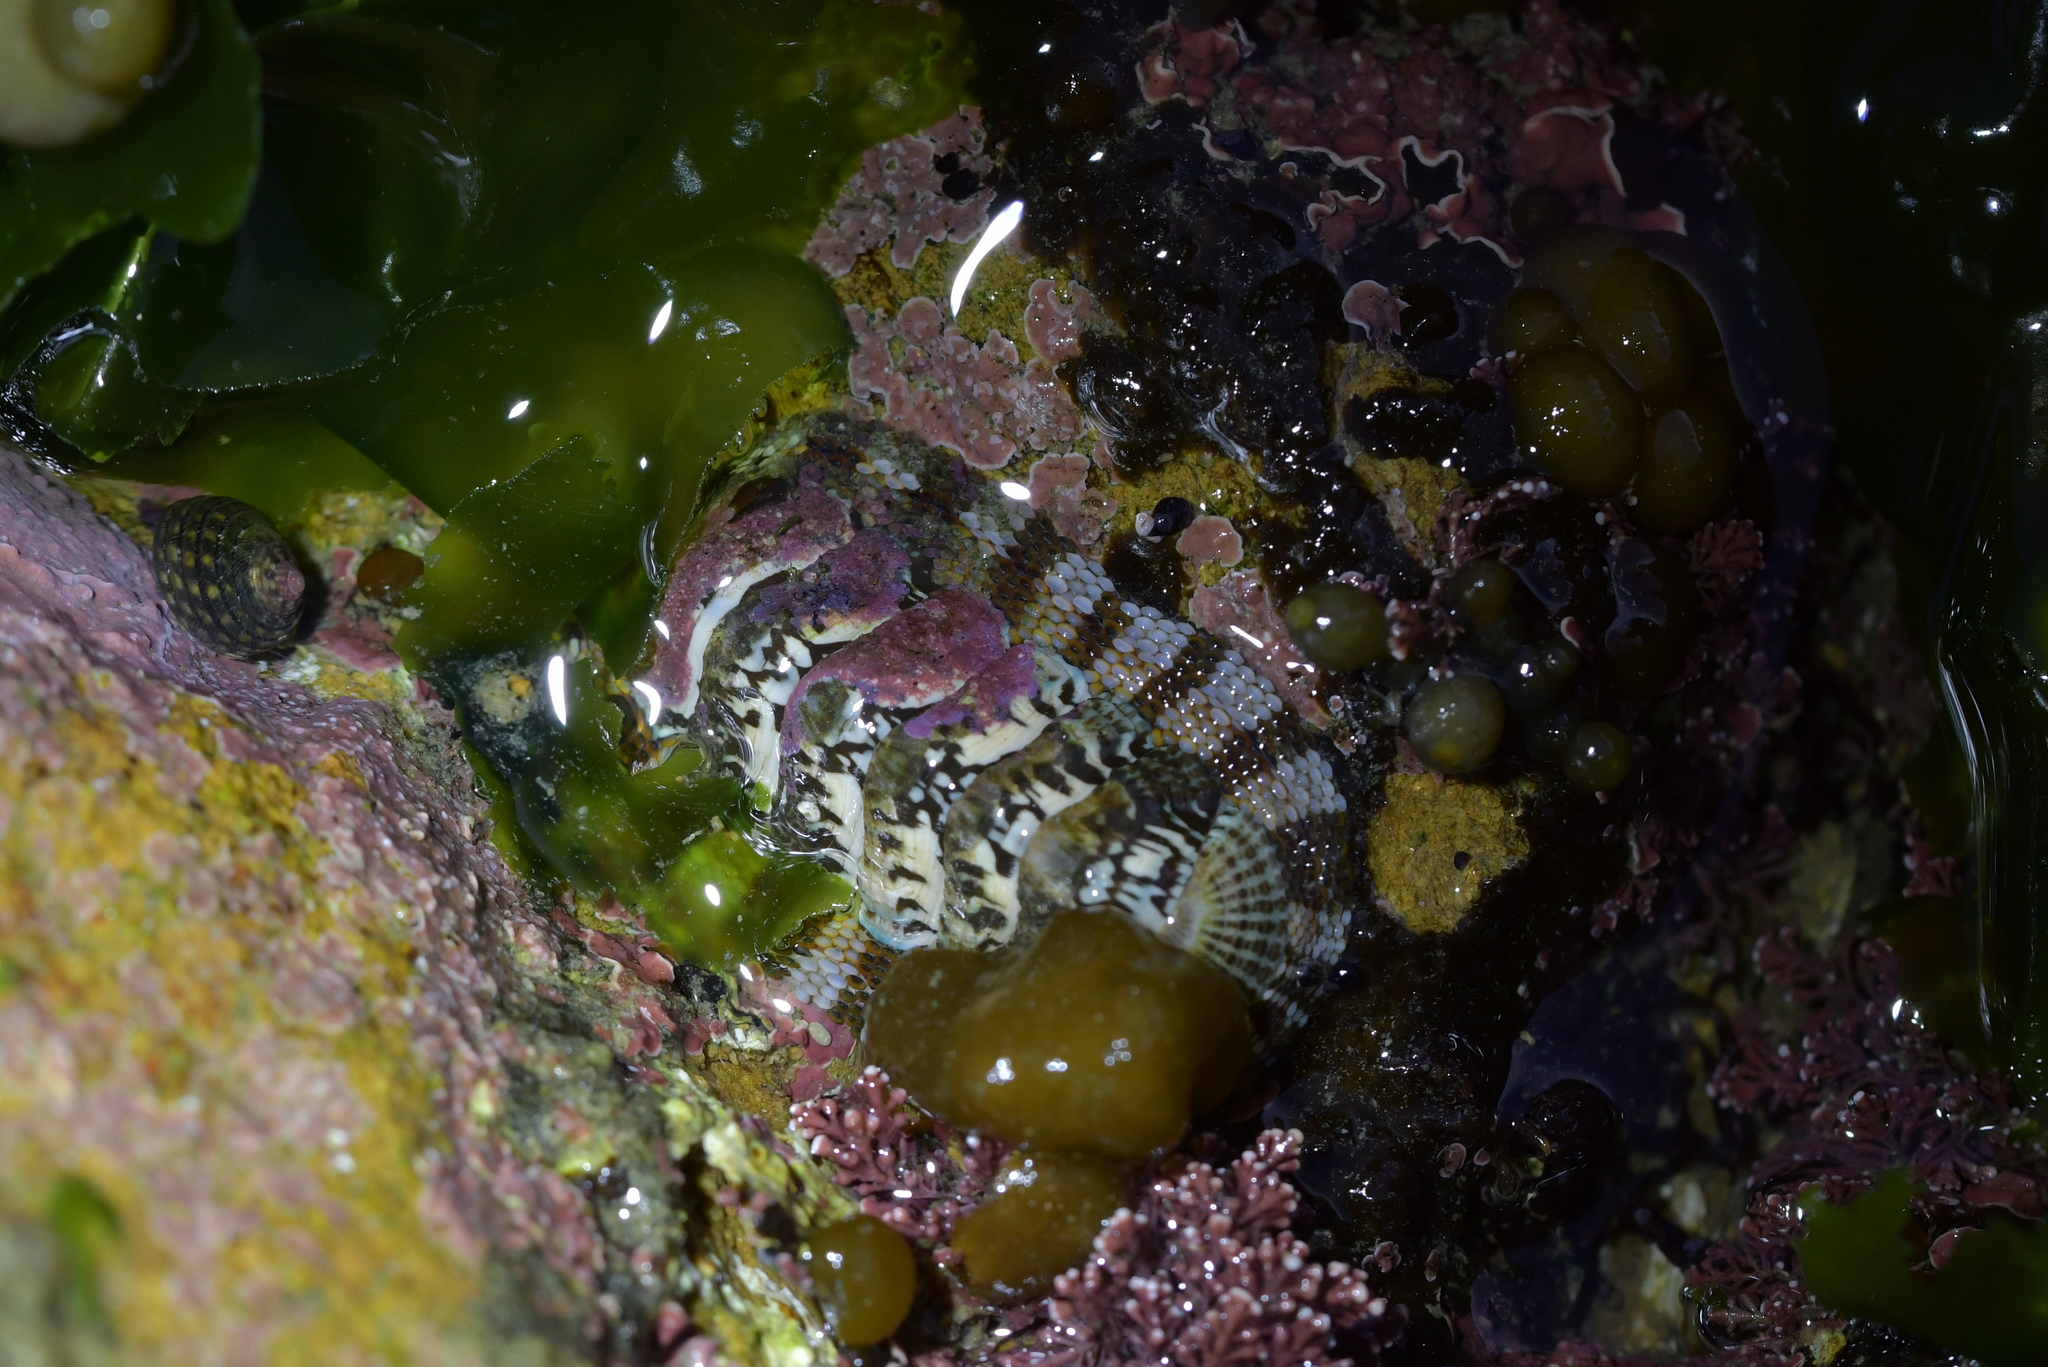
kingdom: Animalia
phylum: Mollusca
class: Polyplacophora
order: Chitonida
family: Chitonidae
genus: Sypharochiton
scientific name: Sypharochiton sinclairi
